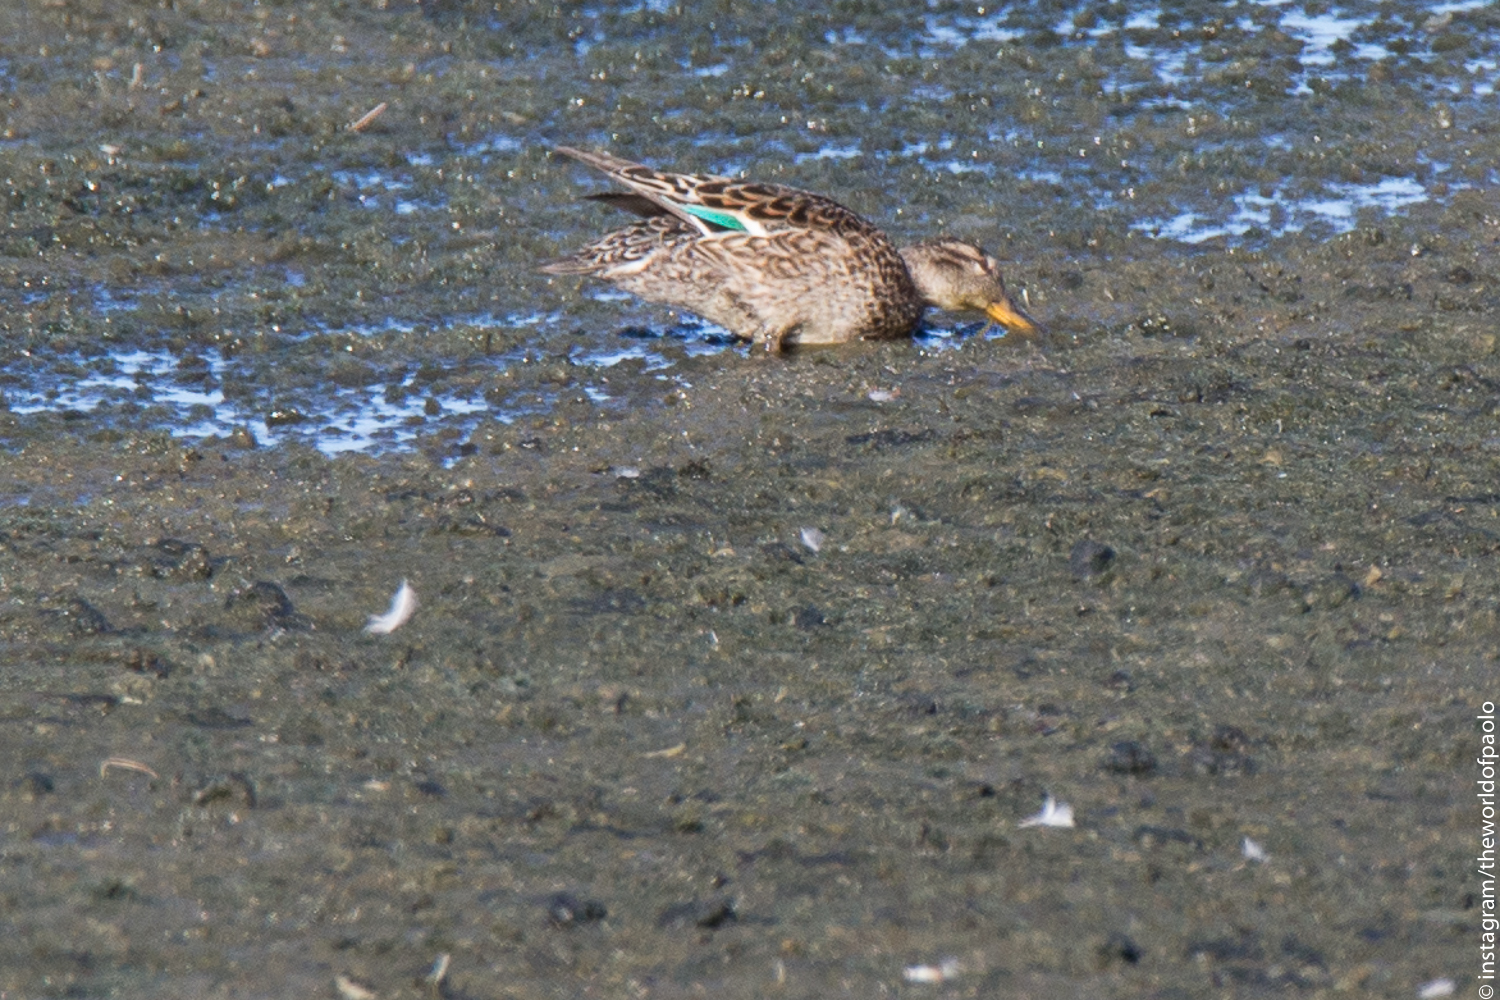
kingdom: Animalia
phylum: Chordata
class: Aves
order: Anseriformes
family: Anatidae
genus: Anas
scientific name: Anas crecca
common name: Eurasian teal
